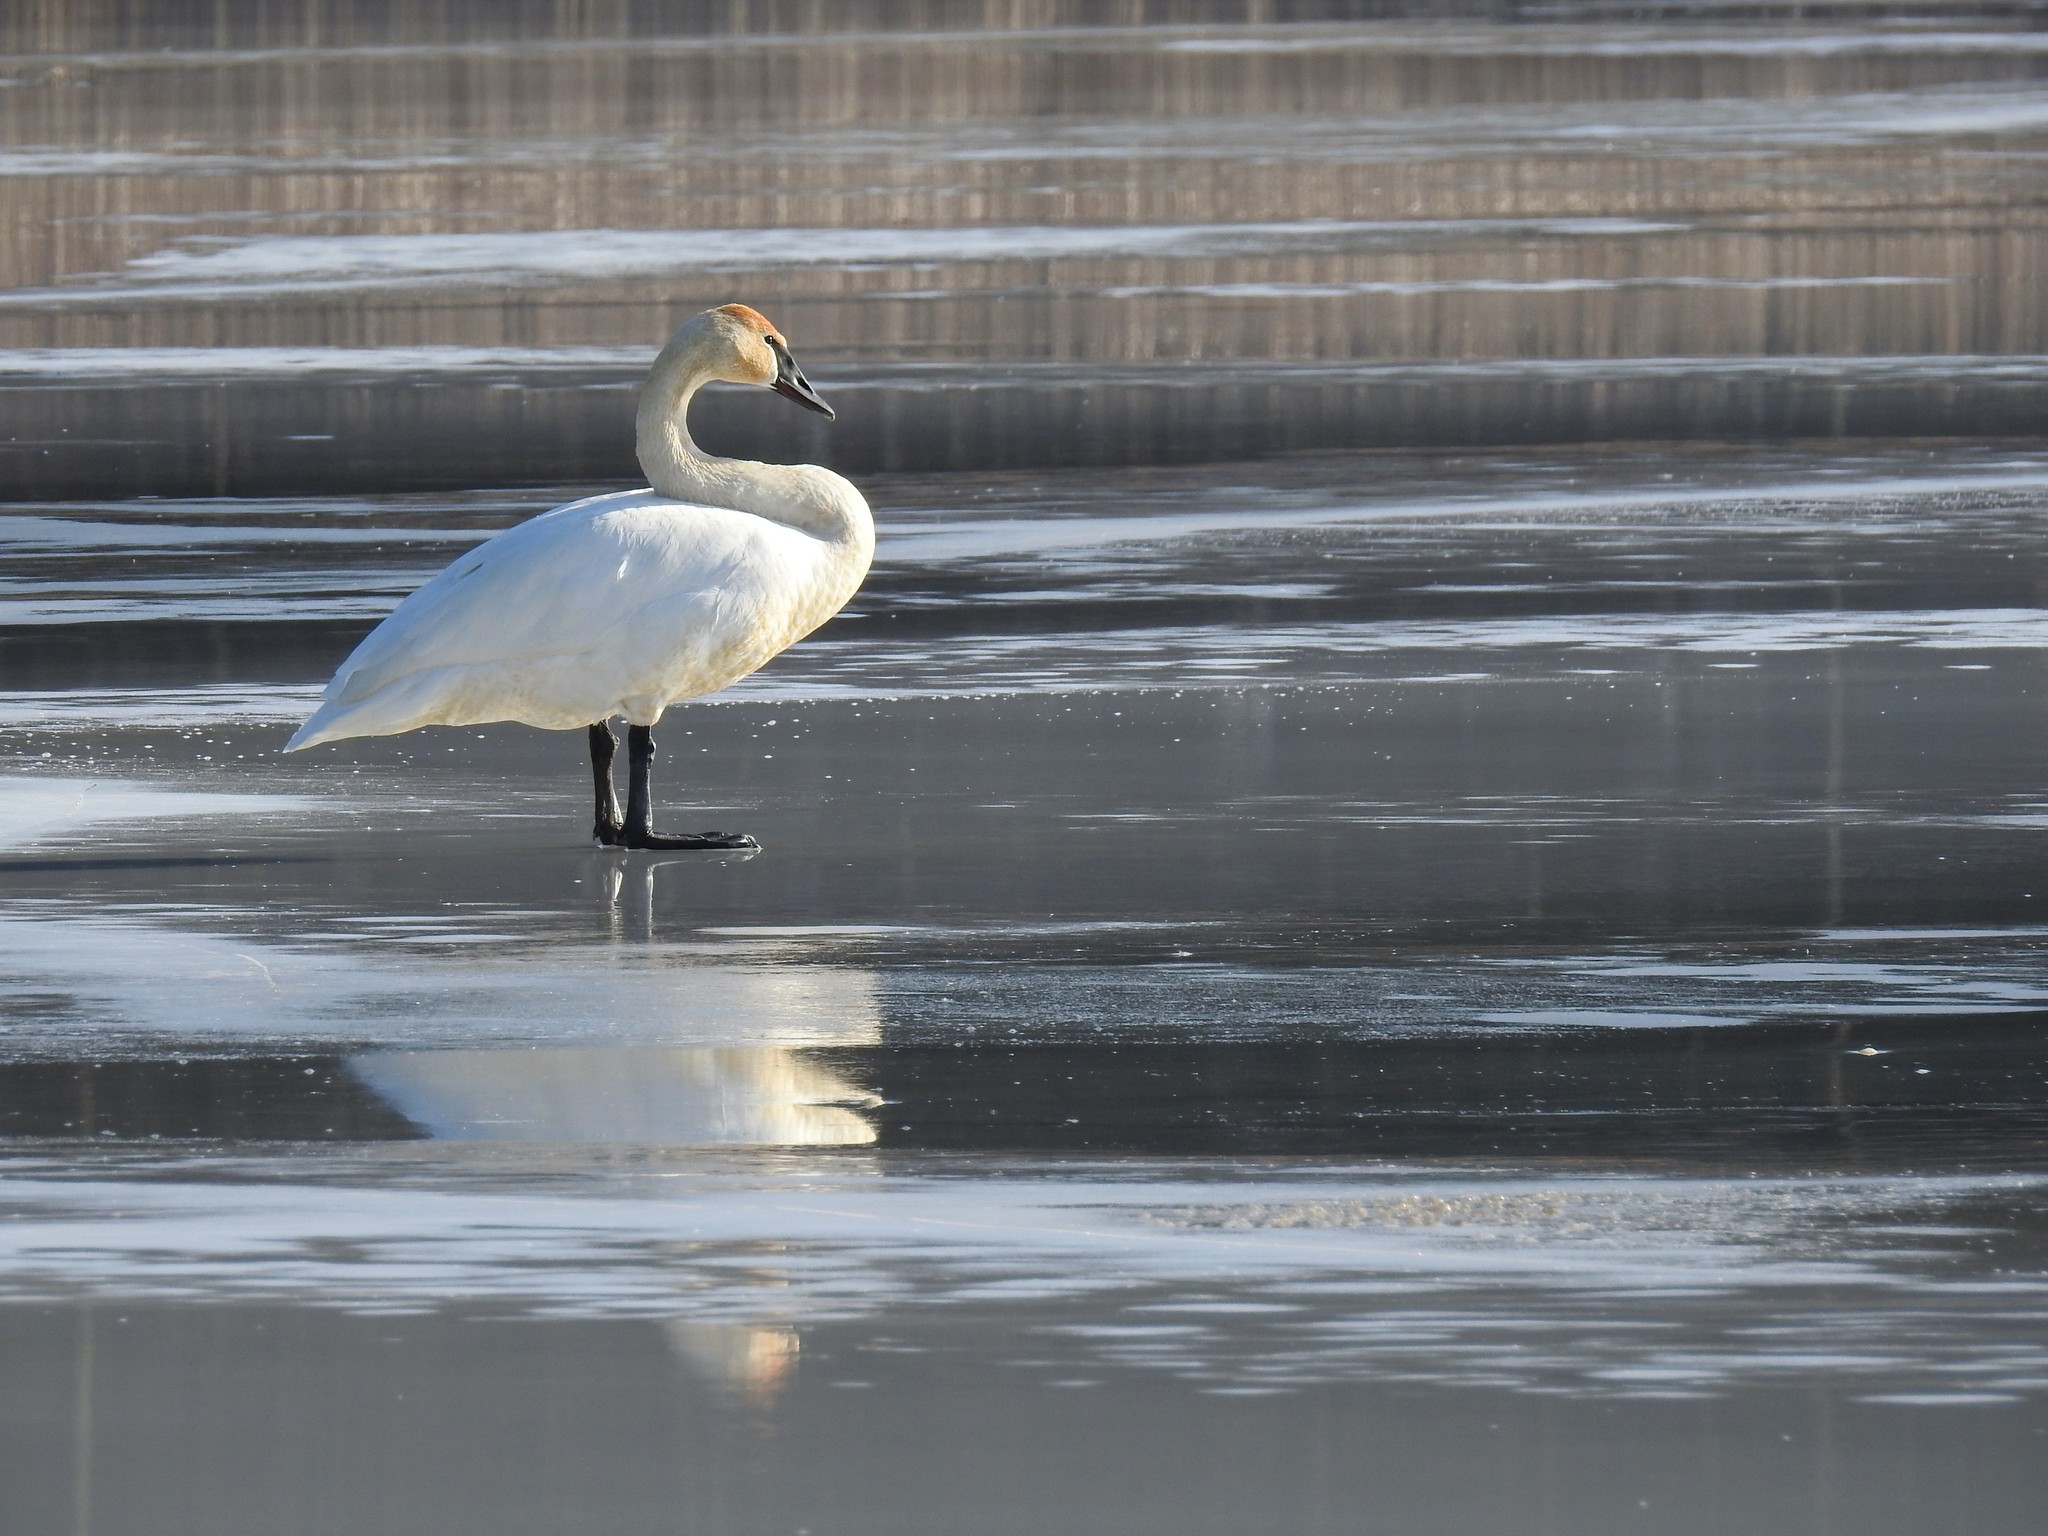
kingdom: Animalia
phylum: Chordata
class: Aves
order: Anseriformes
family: Anatidae
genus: Cygnus
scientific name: Cygnus buccinator
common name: Trumpeter swan
